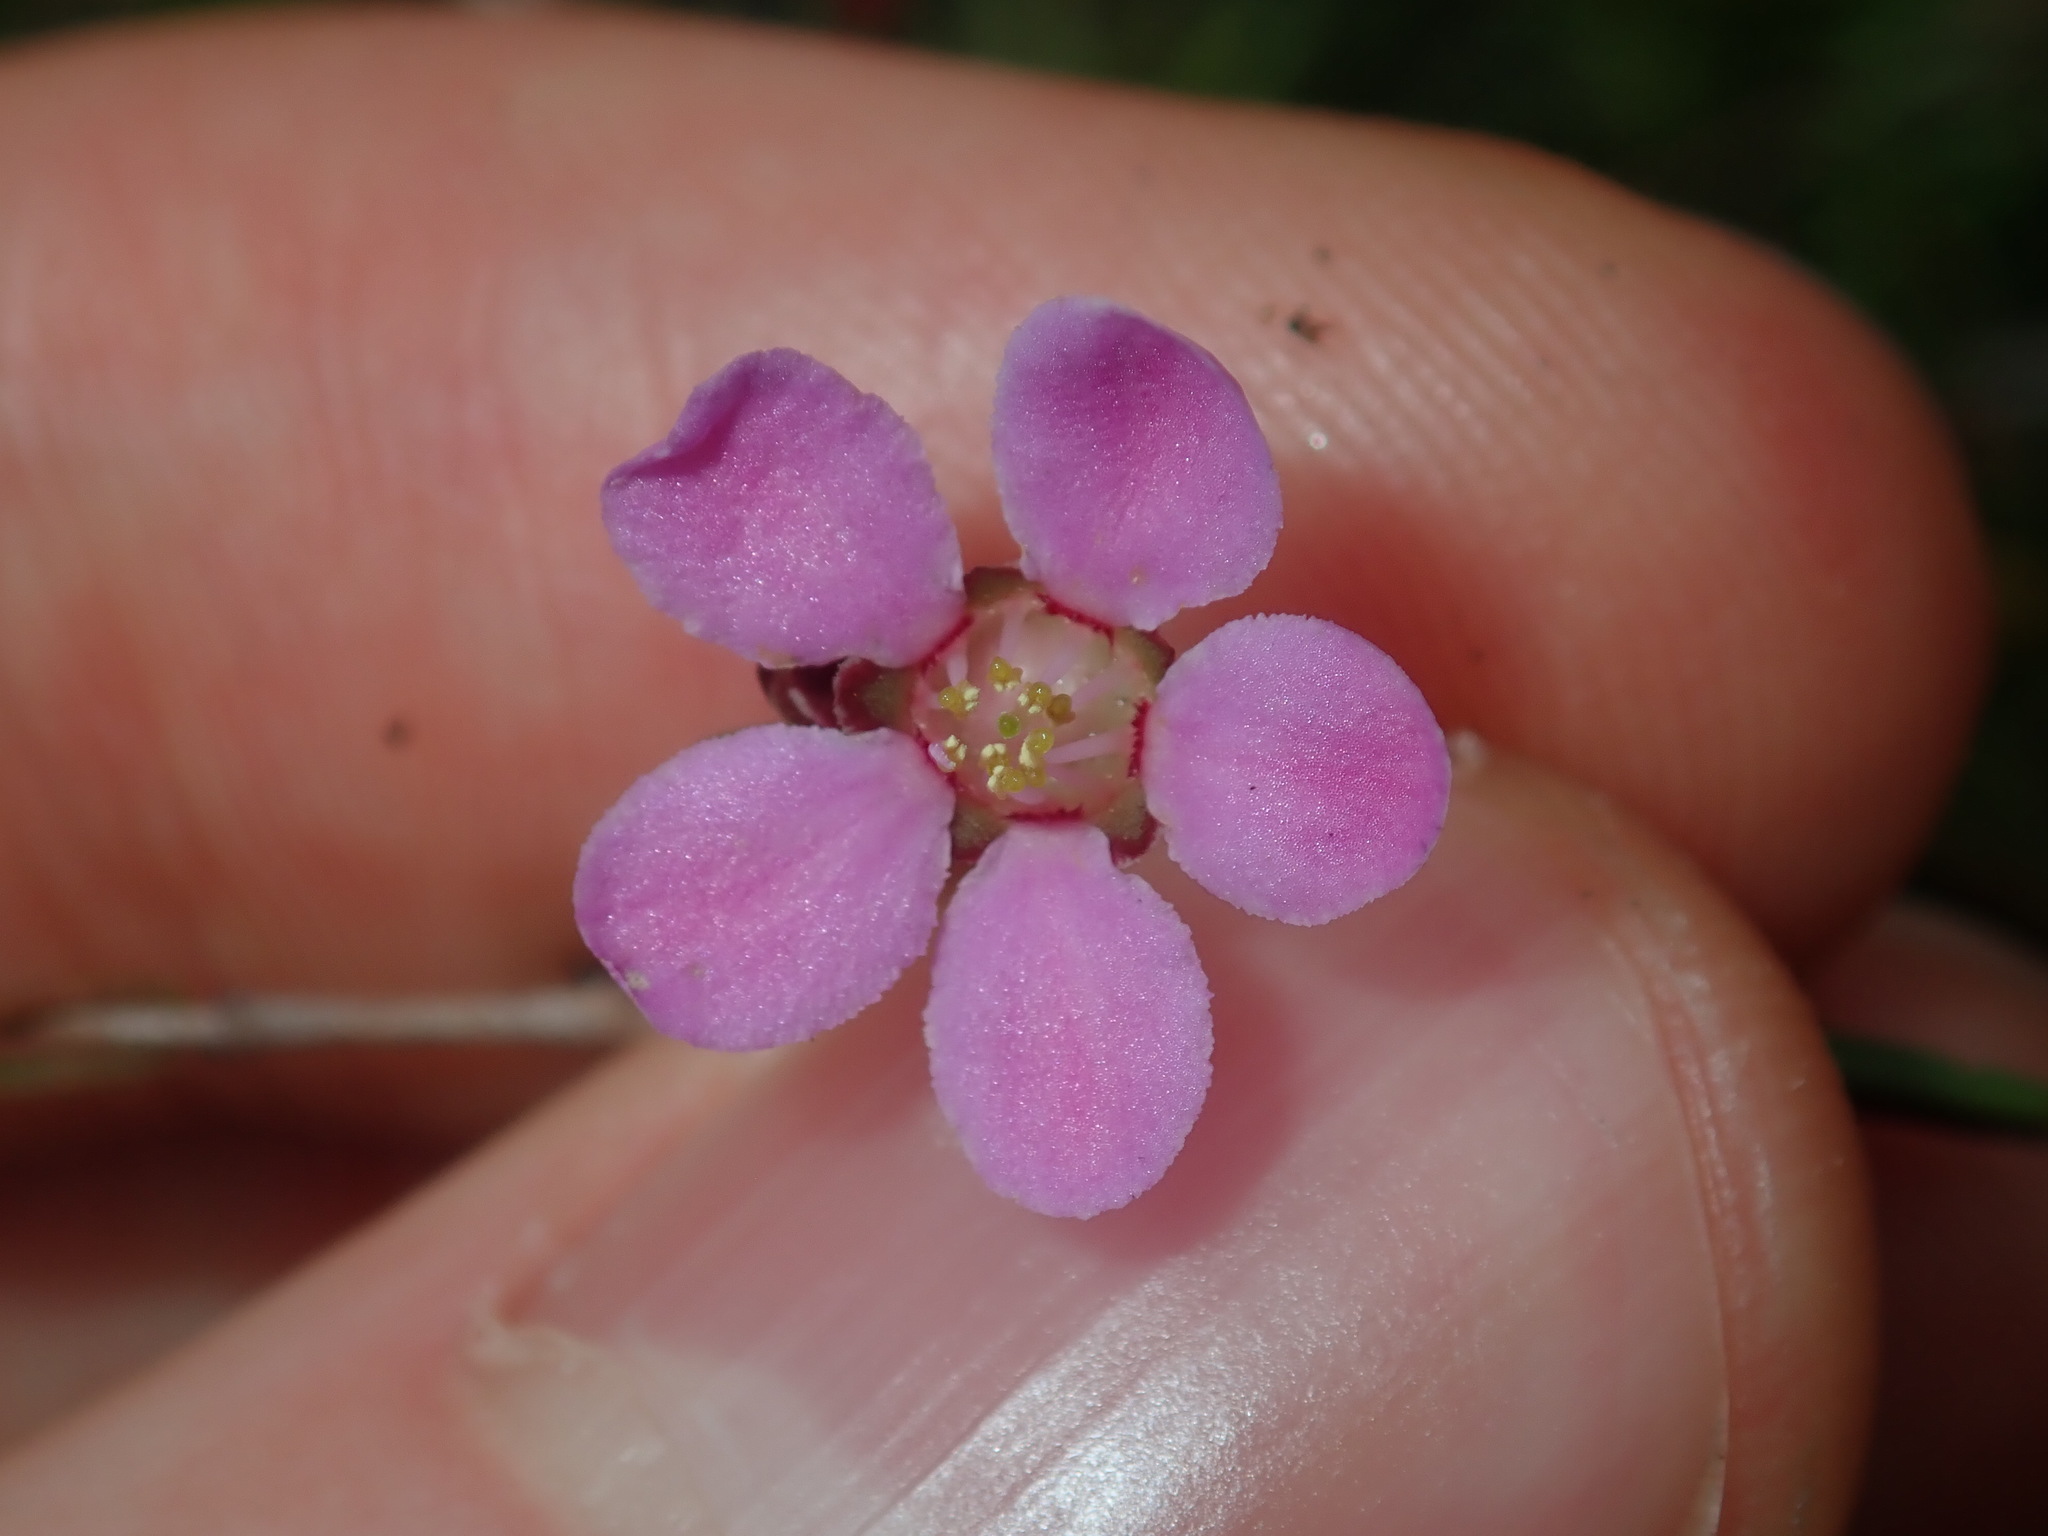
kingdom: Plantae
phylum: Tracheophyta
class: Magnoliopsida
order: Myrtales
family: Myrtaceae
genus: Euryomyrtus
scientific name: Euryomyrtus ramosissima
